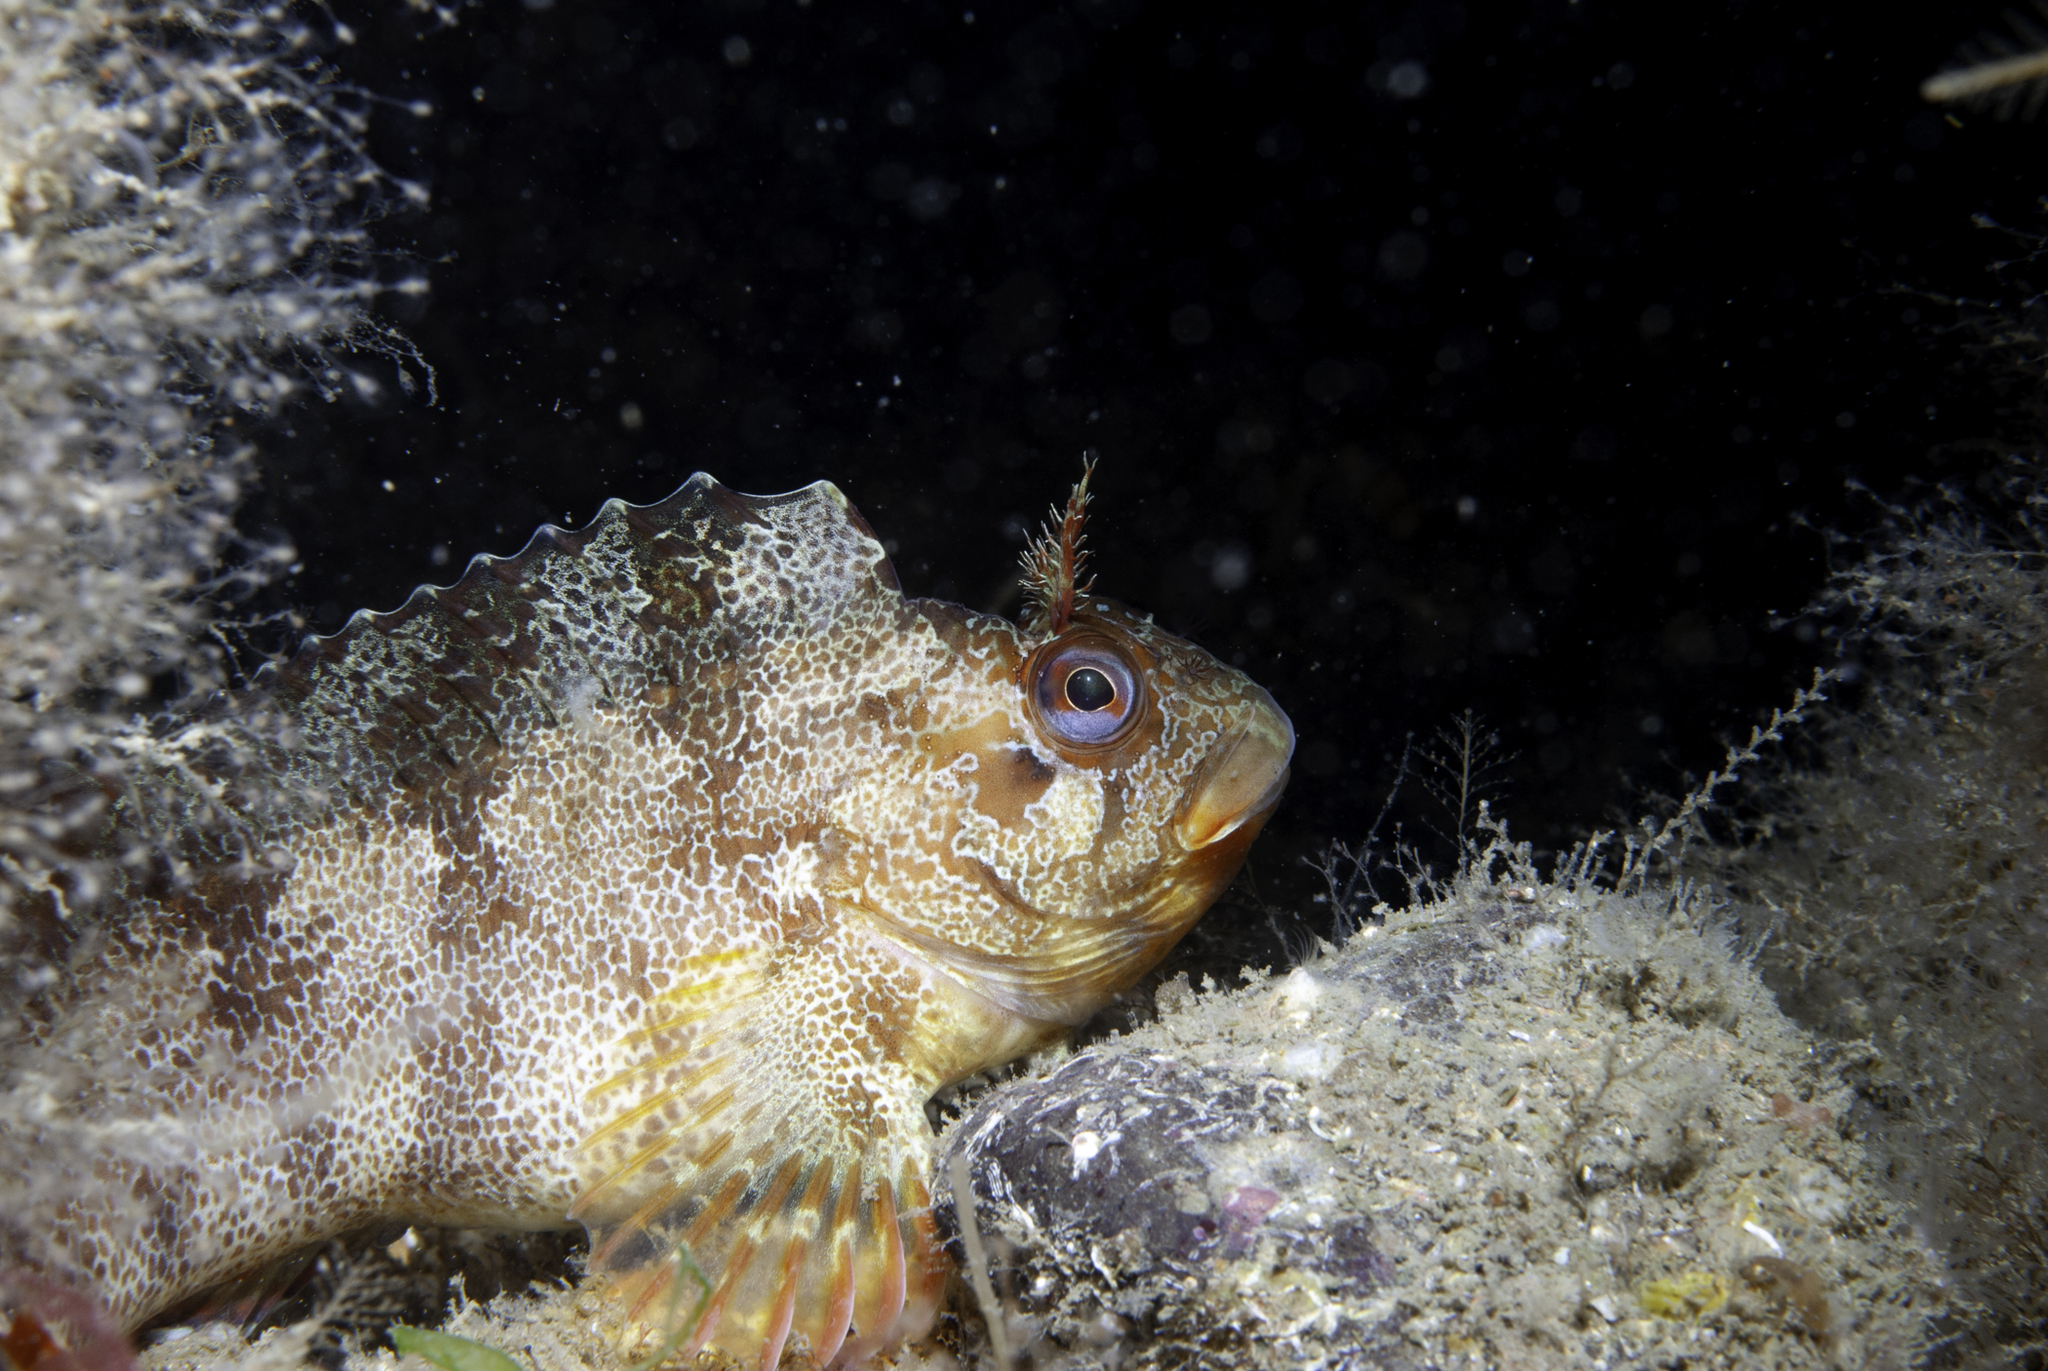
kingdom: Animalia
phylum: Chordata
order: Perciformes
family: Blenniidae
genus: Parablennius
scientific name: Parablennius gattorugine
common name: Tompot blenny
